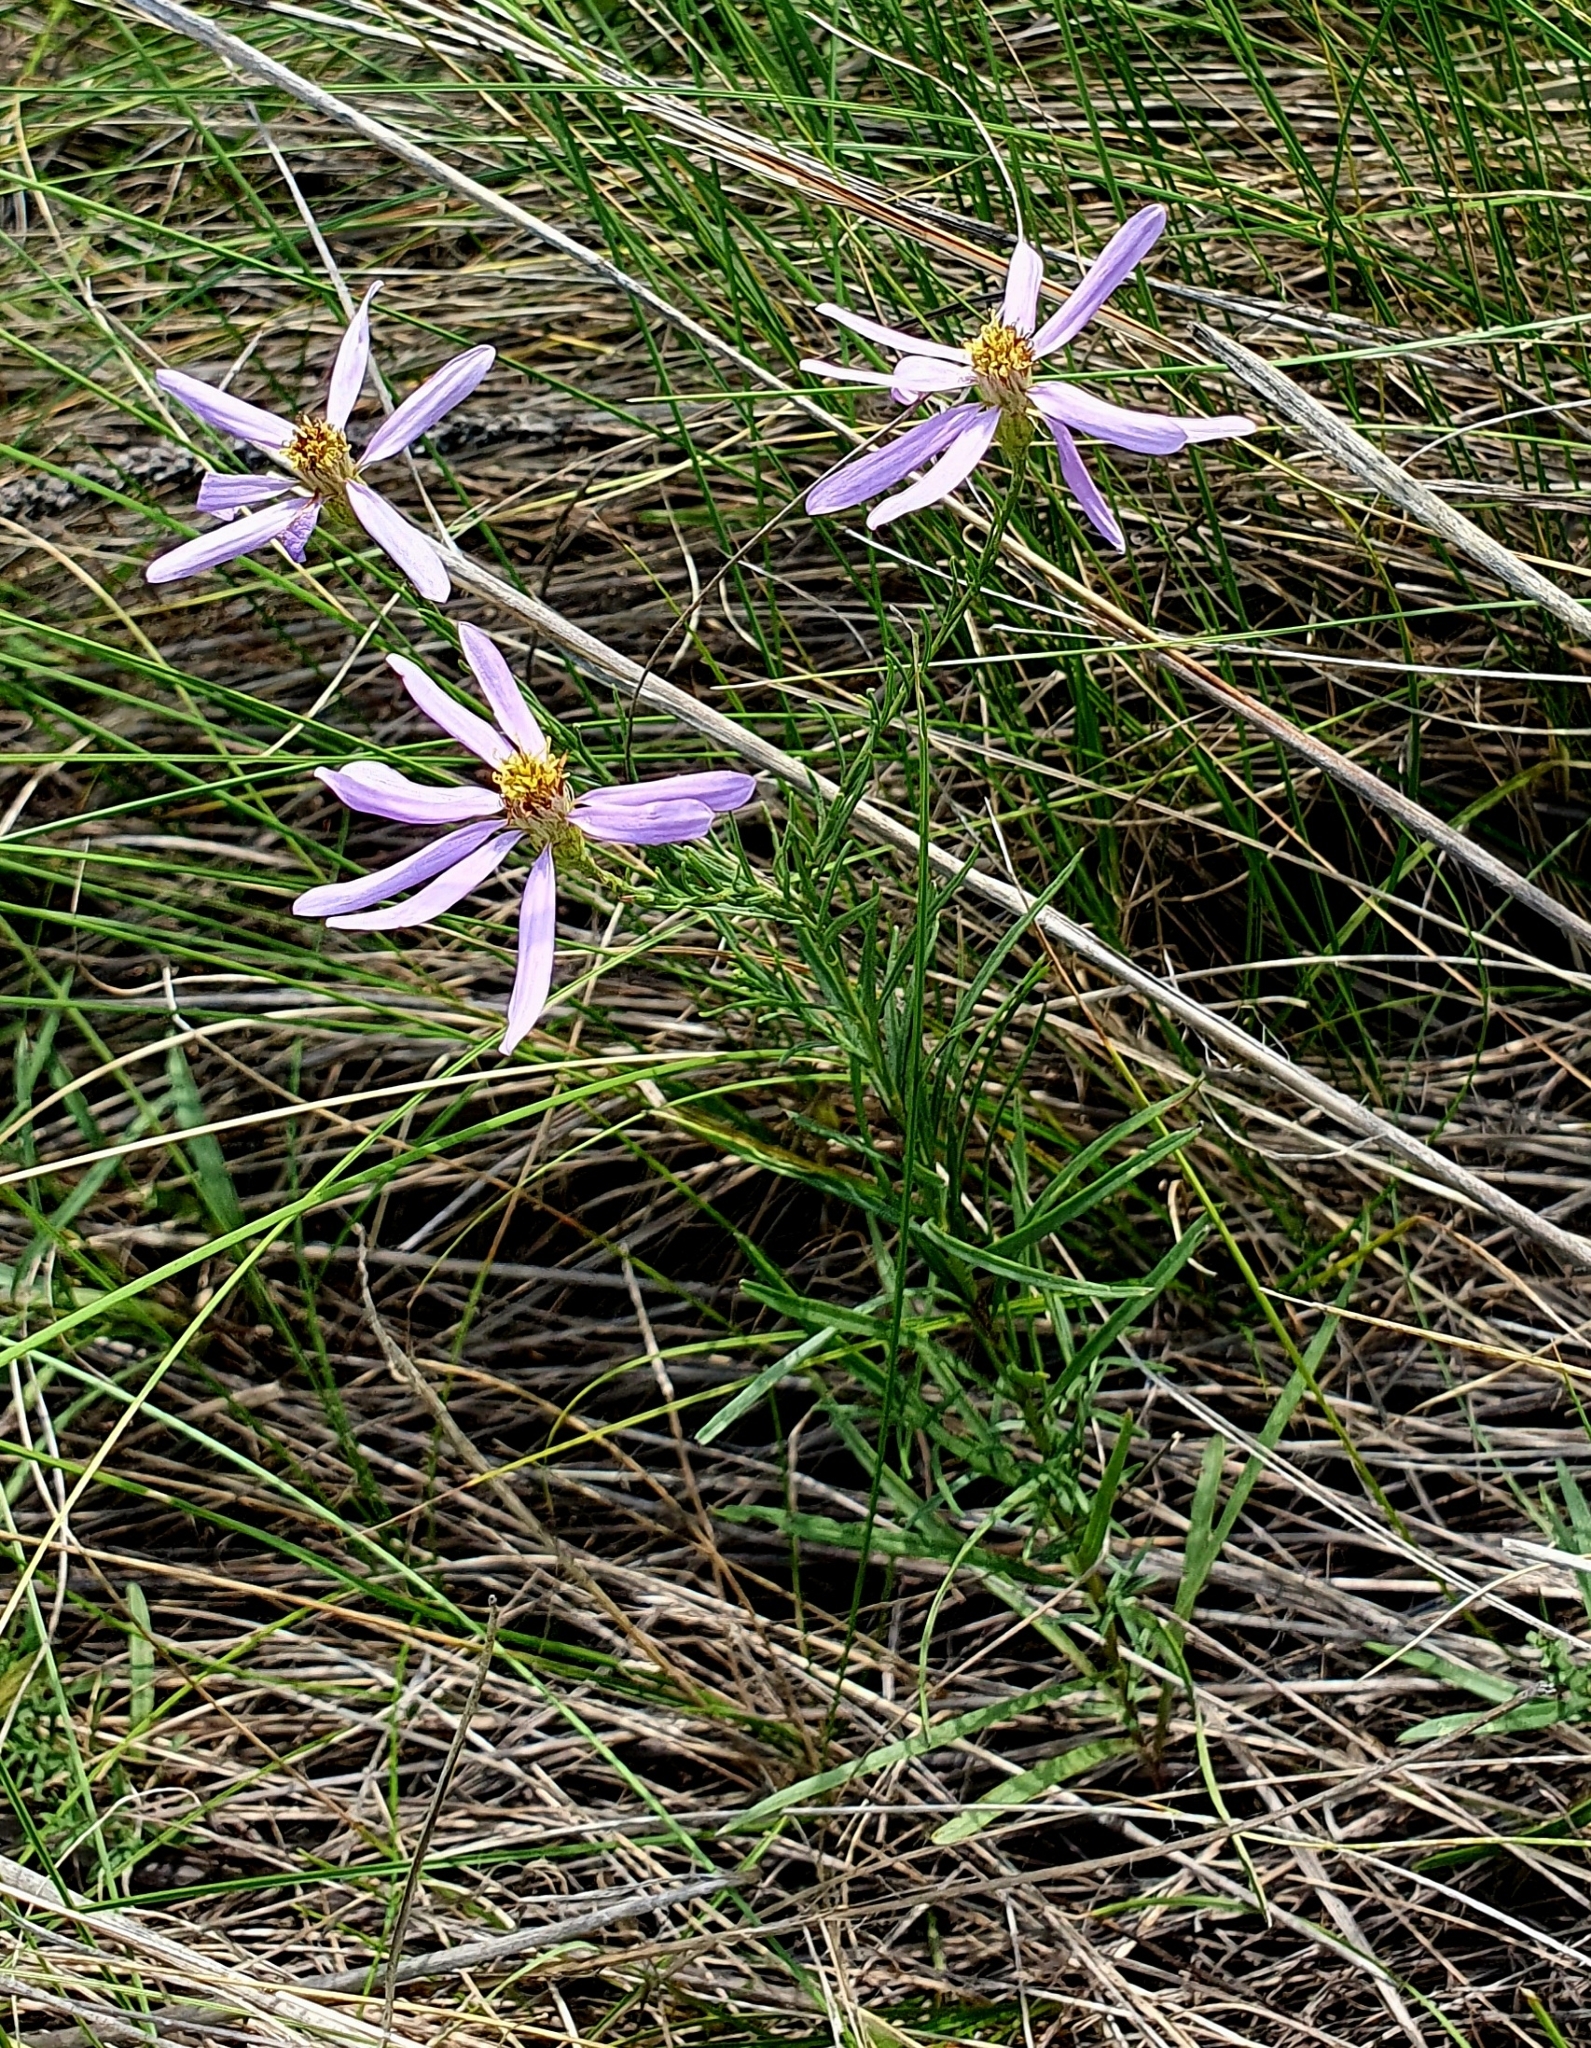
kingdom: Plantae
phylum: Tracheophyta
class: Magnoliopsida
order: Asterales
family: Asteraceae
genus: Galatella
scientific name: Galatella angustissima
